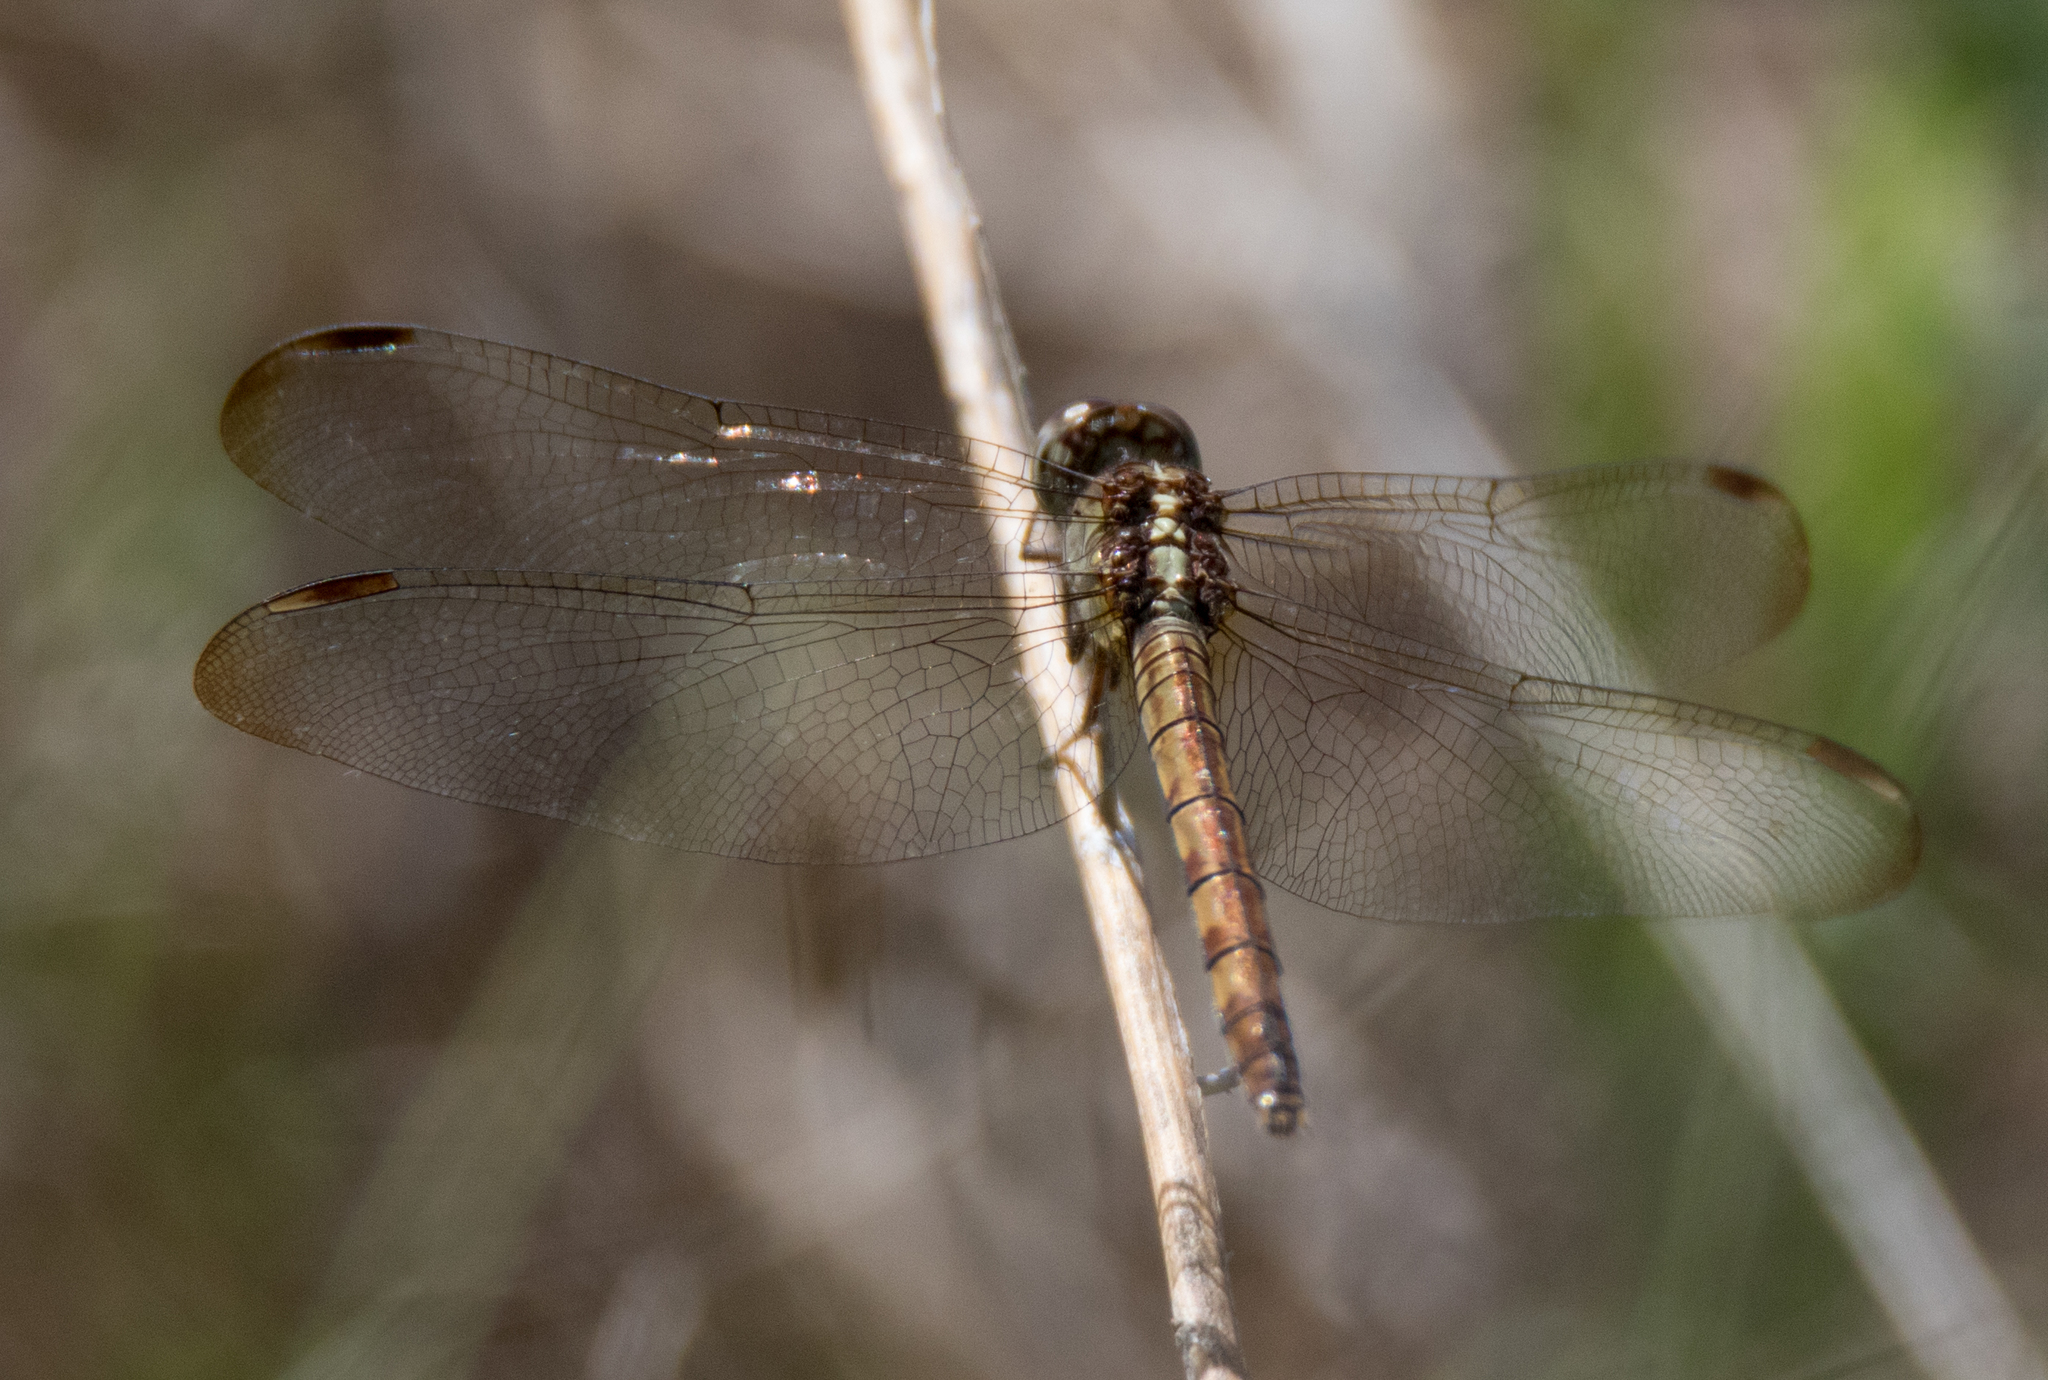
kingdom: Animalia
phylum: Arthropoda
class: Insecta
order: Odonata
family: Libellulidae
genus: Erythrodiplax
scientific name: Erythrodiplax umbrata
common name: Band-winged dragonlet
